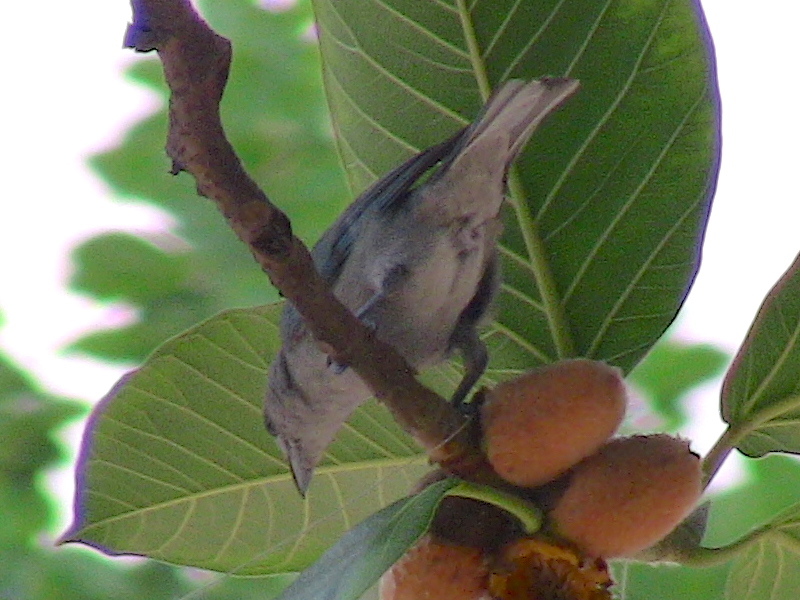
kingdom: Animalia
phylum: Chordata
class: Aves
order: Passeriformes
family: Thraupidae
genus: Thraupis
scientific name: Thraupis sayaca
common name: Sayaca tanager
